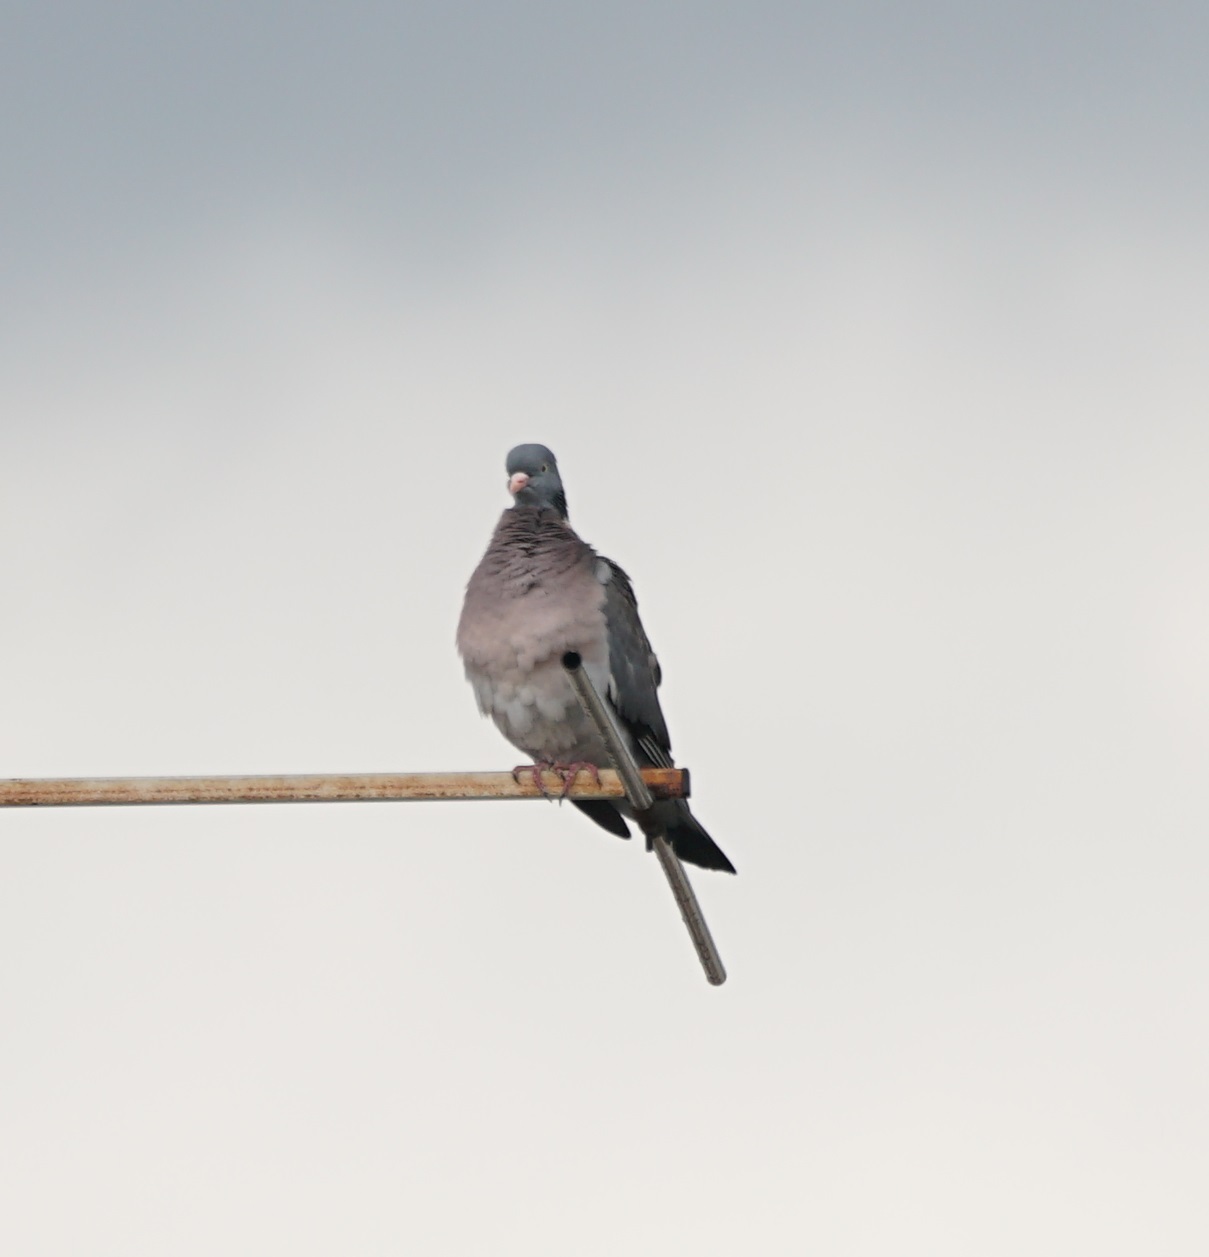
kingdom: Animalia
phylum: Chordata
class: Aves
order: Columbiformes
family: Columbidae
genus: Columba
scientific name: Columba palumbus
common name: Common wood pigeon
